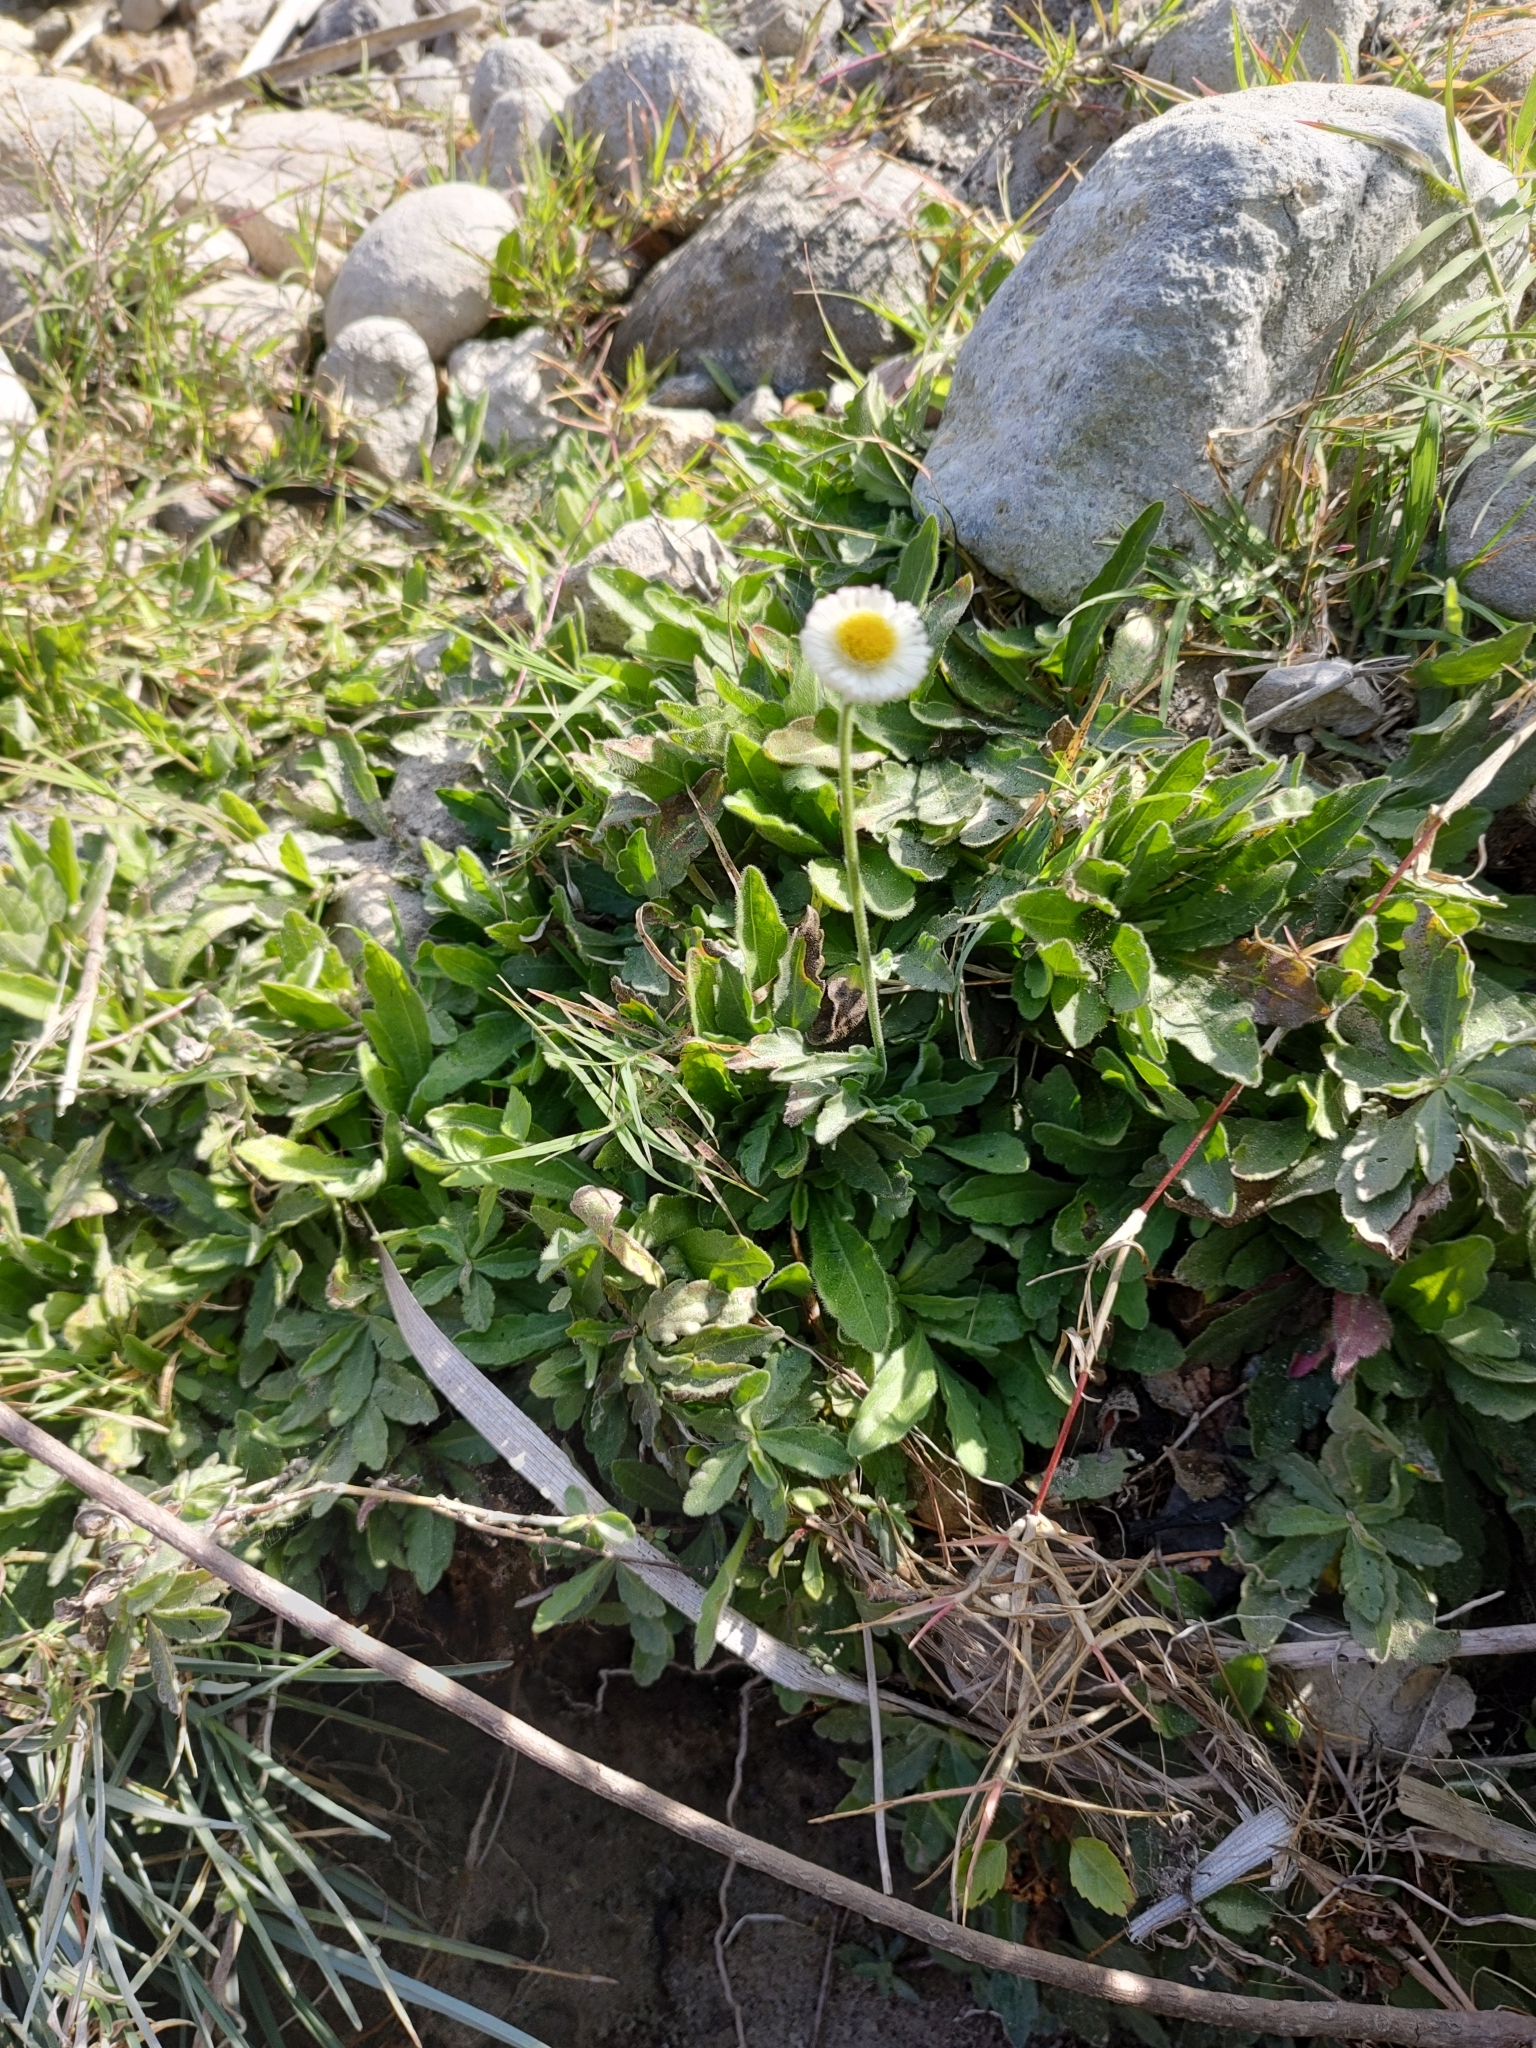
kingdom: Plantae
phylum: Tracheophyta
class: Magnoliopsida
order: Asterales
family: Asteraceae
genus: Erigeron
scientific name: Erigeron longipes
